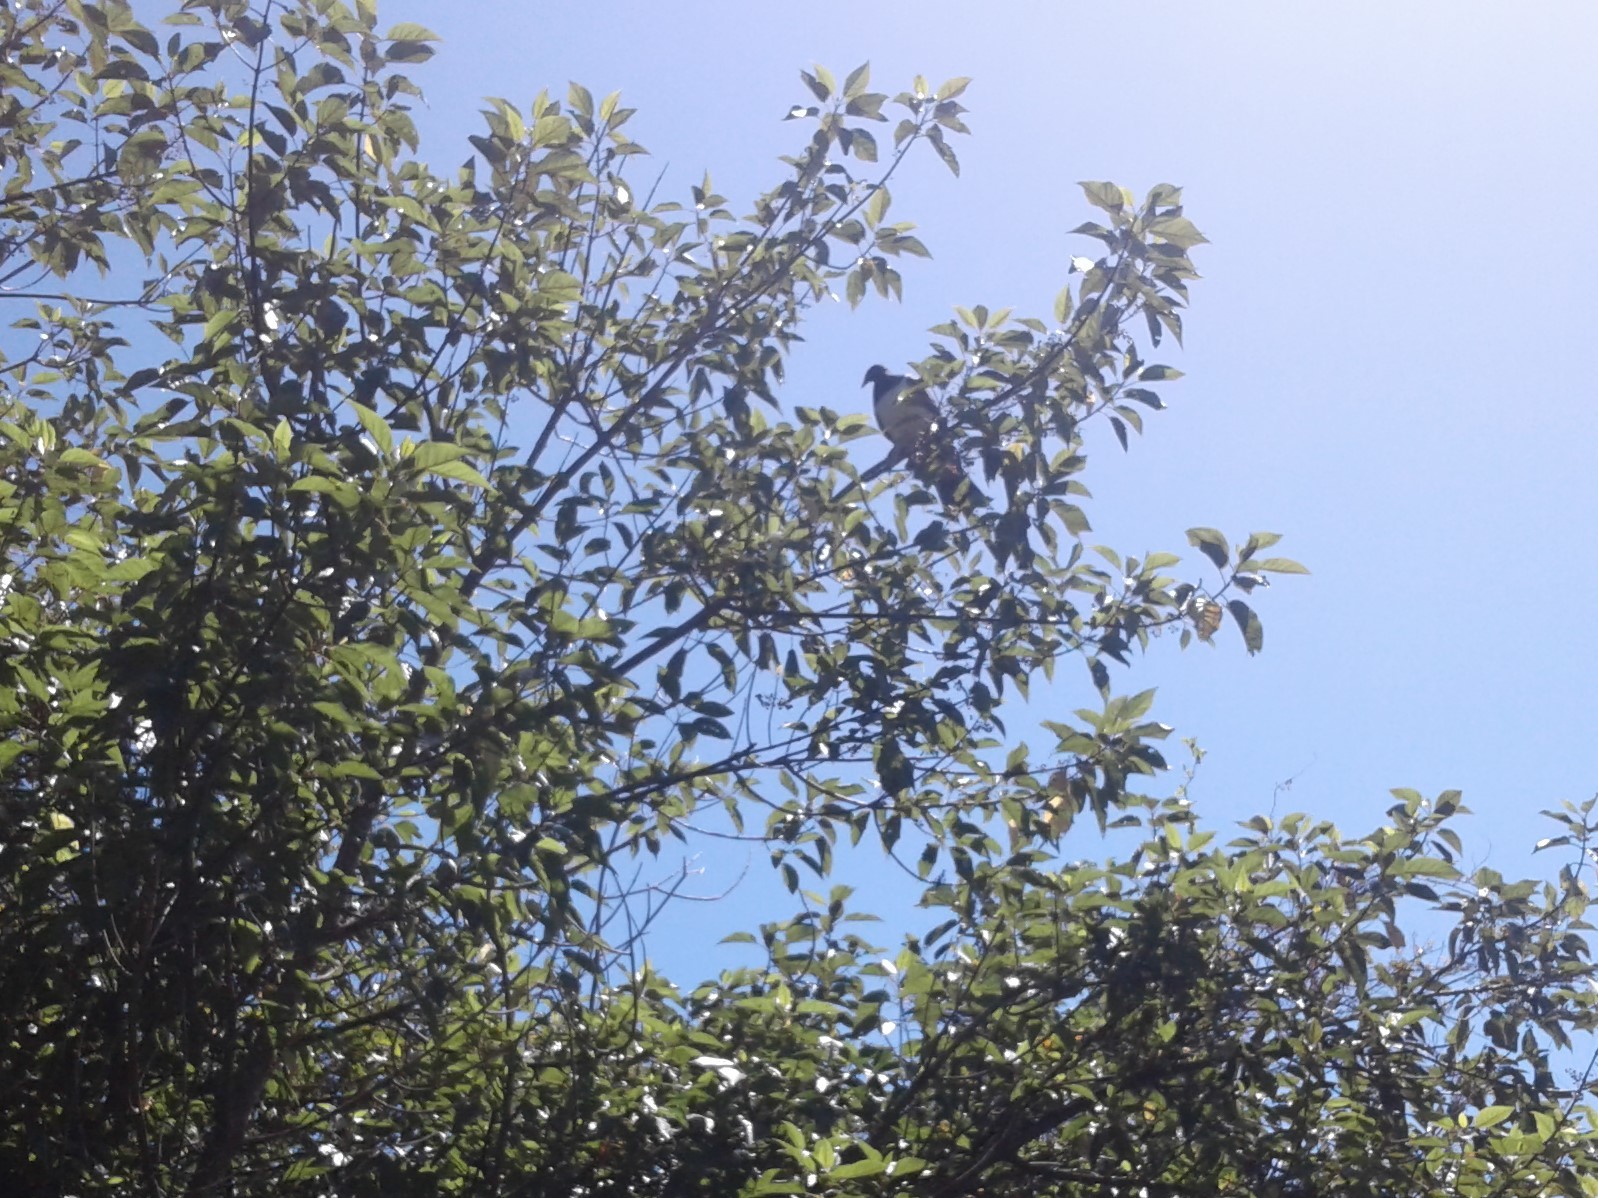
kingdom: Animalia
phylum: Chordata
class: Aves
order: Columbiformes
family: Columbidae
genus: Hemiphaga
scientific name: Hemiphaga novaeseelandiae
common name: New zealand pigeon
